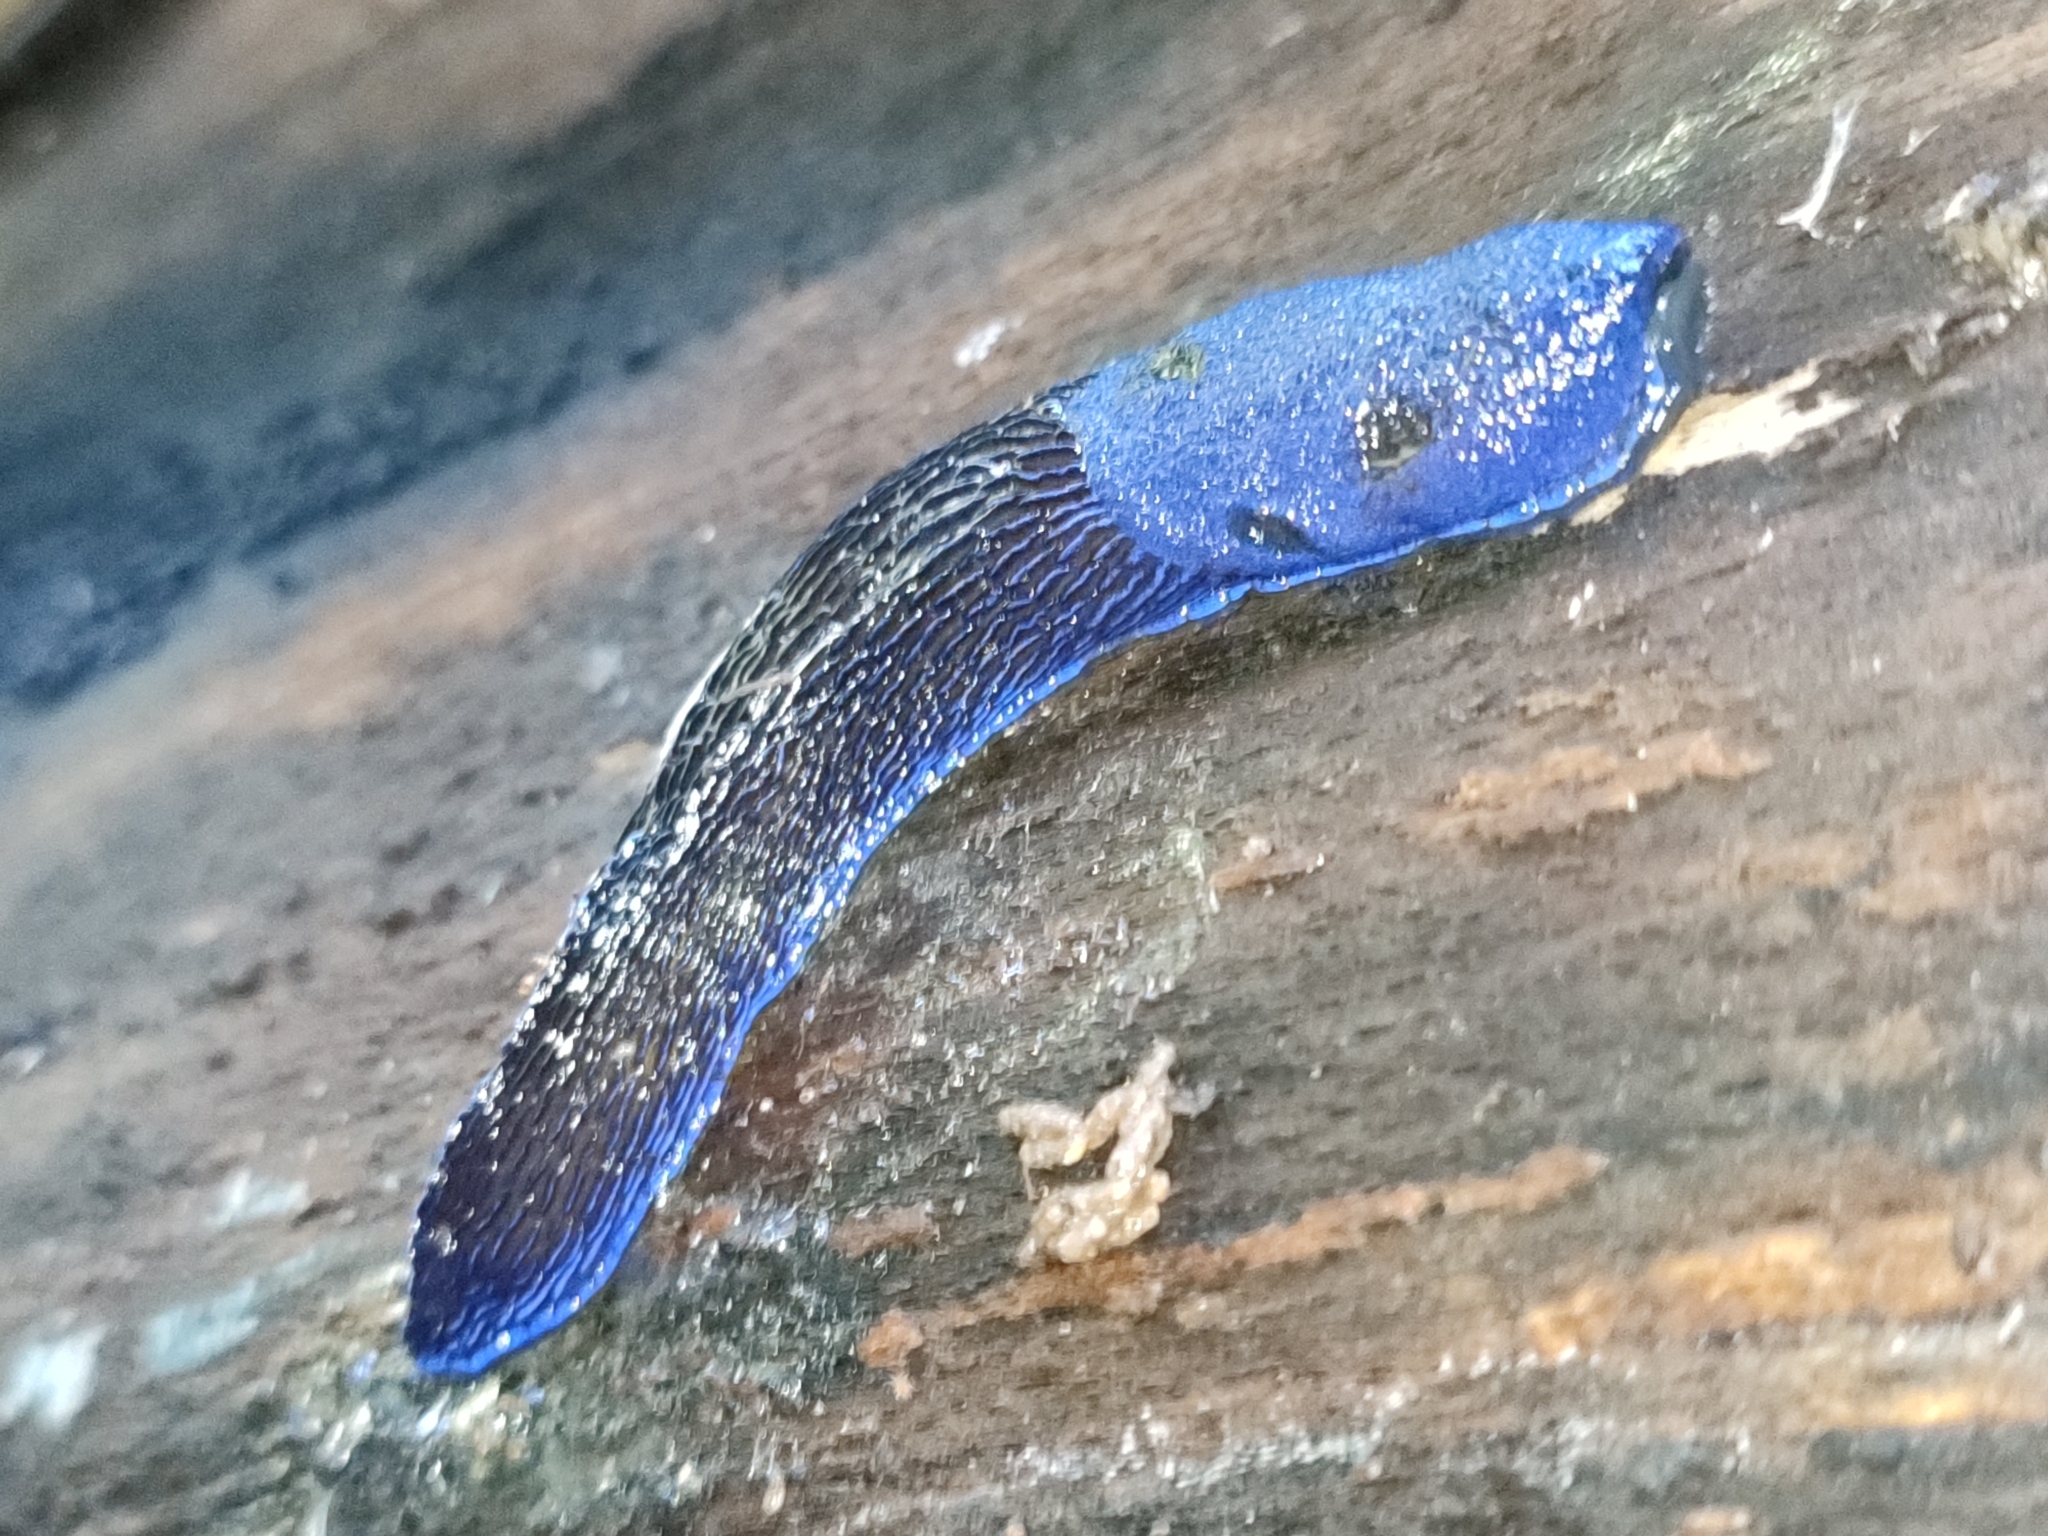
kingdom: Animalia
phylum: Mollusca
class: Gastropoda
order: Stylommatophora
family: Limacidae
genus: Bielzia
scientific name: Bielzia coerulans
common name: Carpathian blue slug
